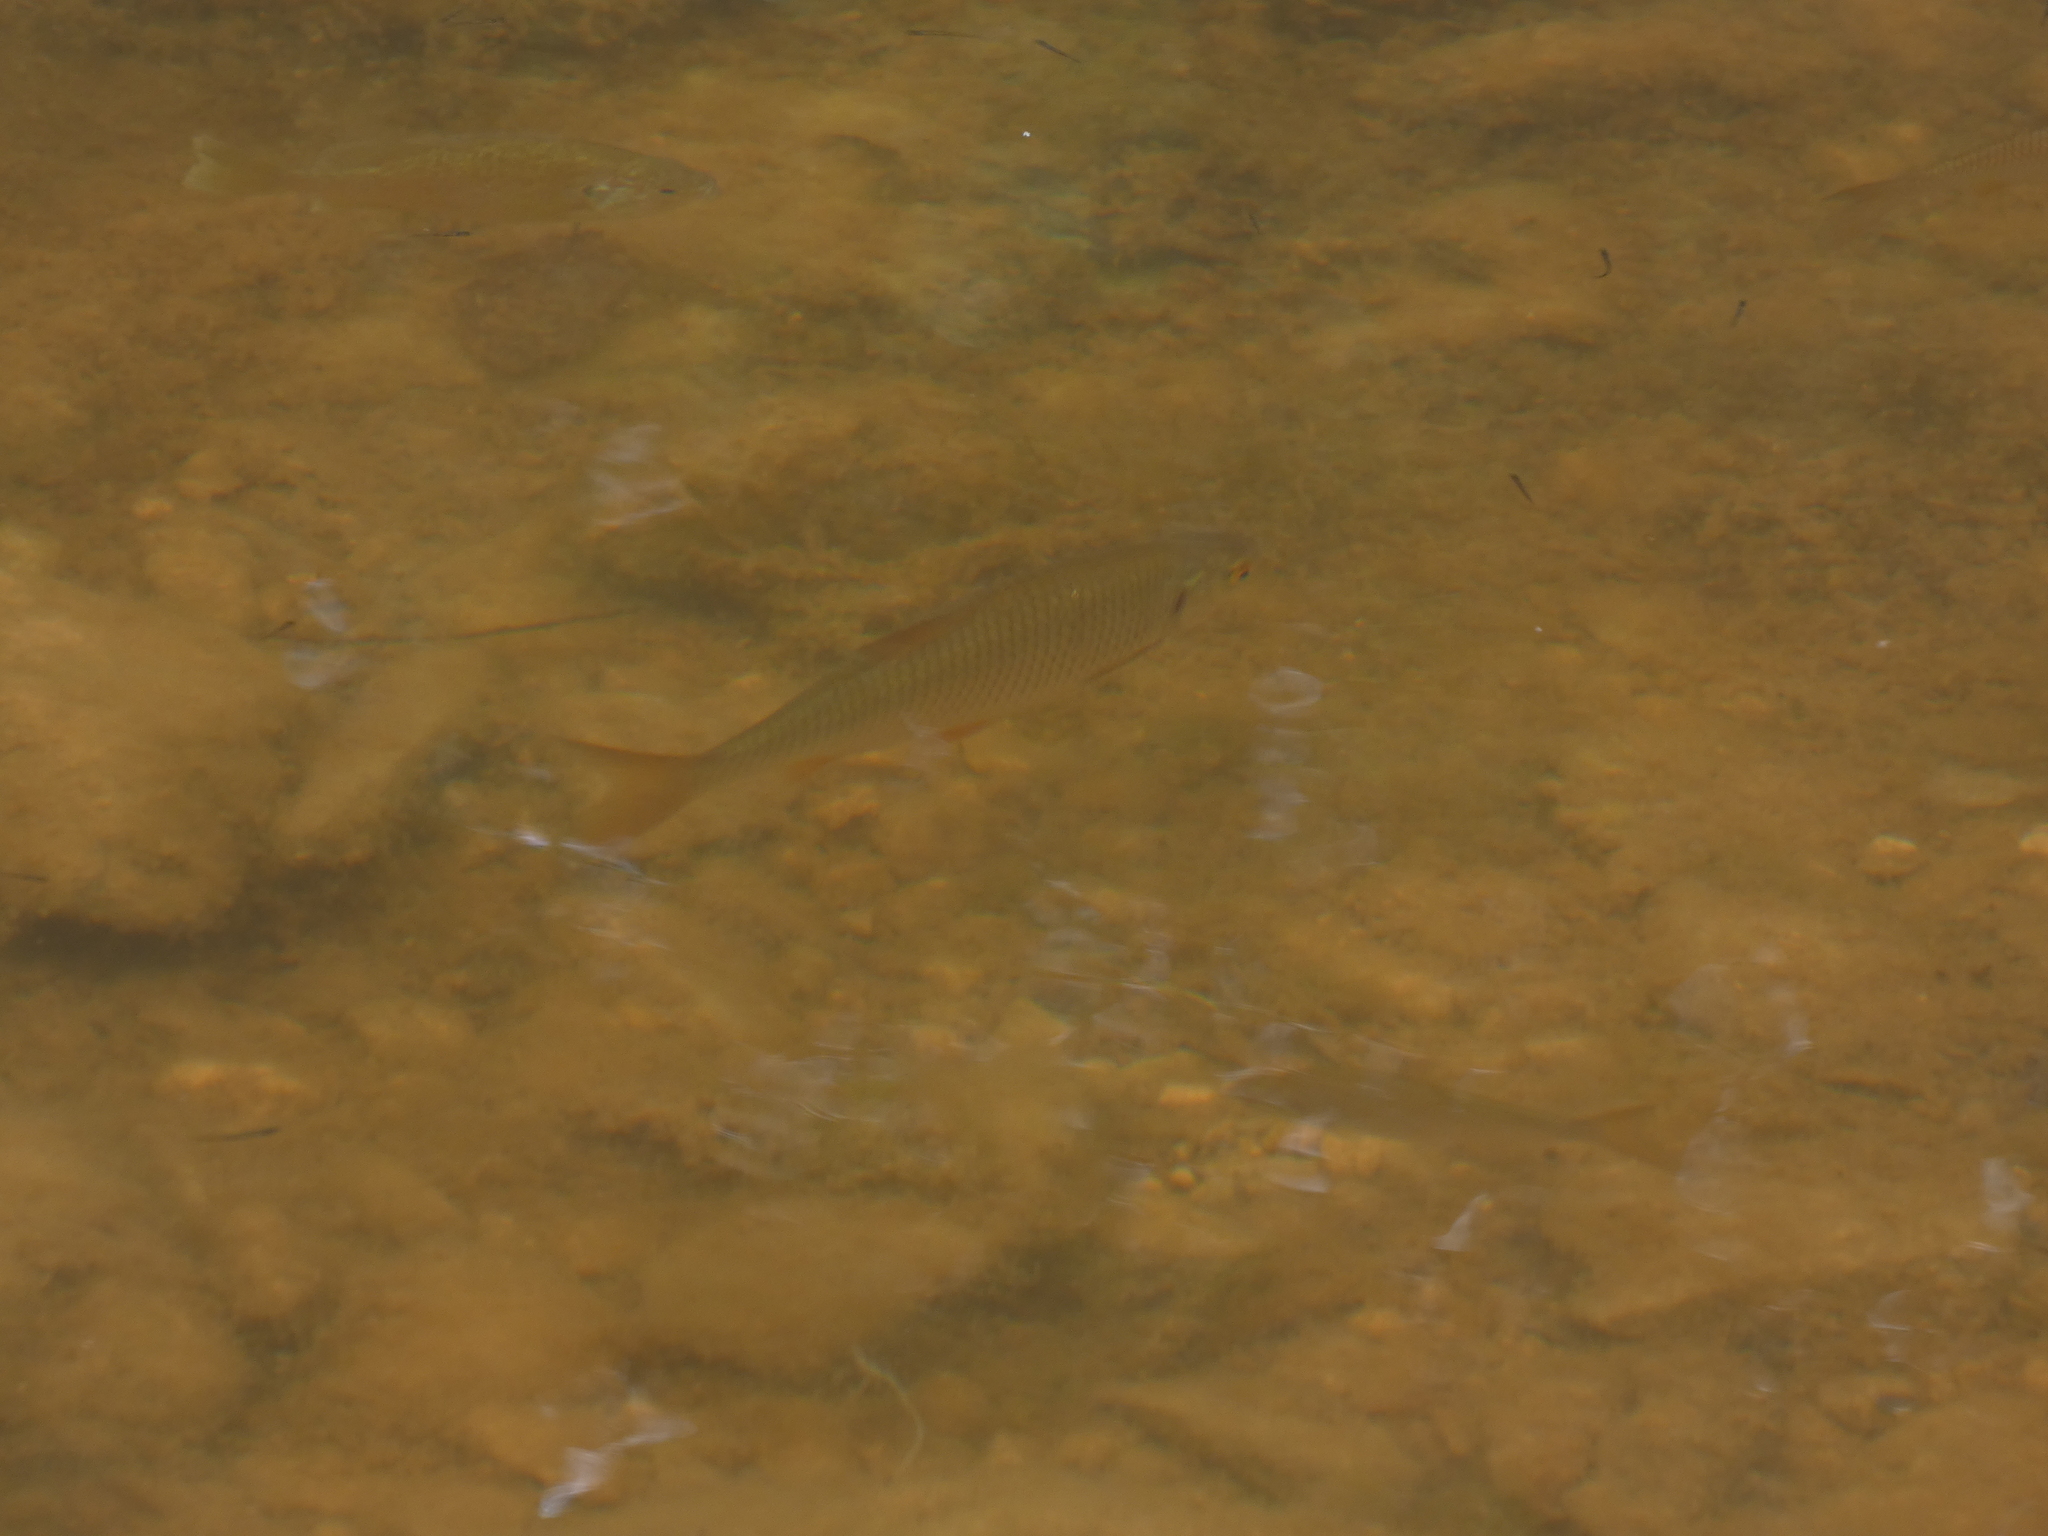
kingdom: Animalia
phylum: Chordata
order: Cypriniformes
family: Cyprinidae
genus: Rutilus
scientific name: Rutilus rutilus
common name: Roach
